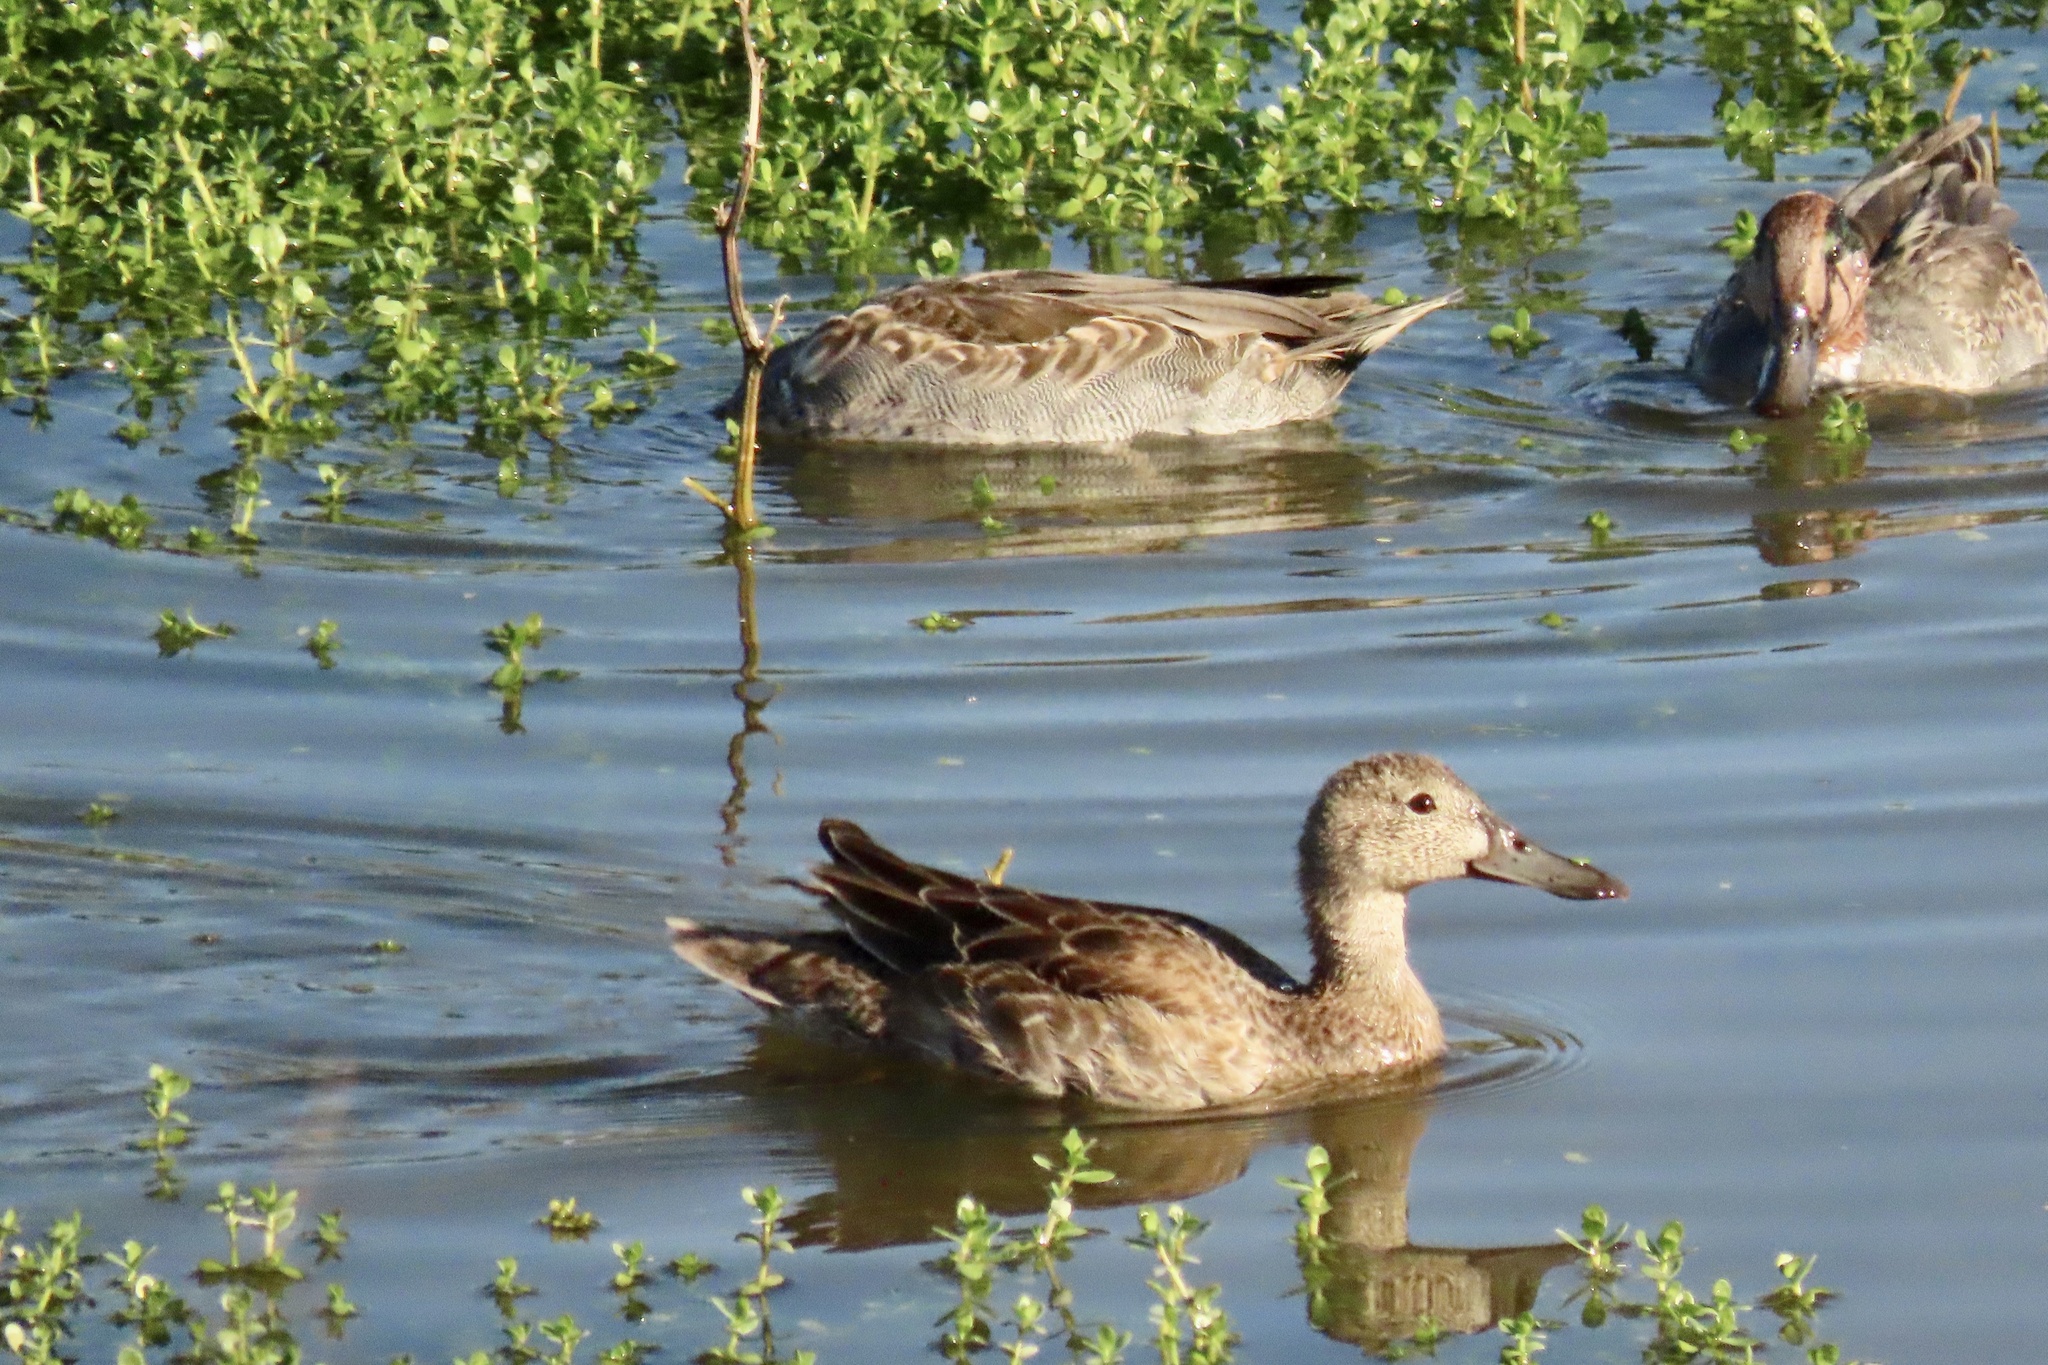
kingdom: Animalia
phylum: Chordata
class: Aves
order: Anseriformes
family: Anatidae
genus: Anas
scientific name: Anas crecca
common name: Eurasian teal
